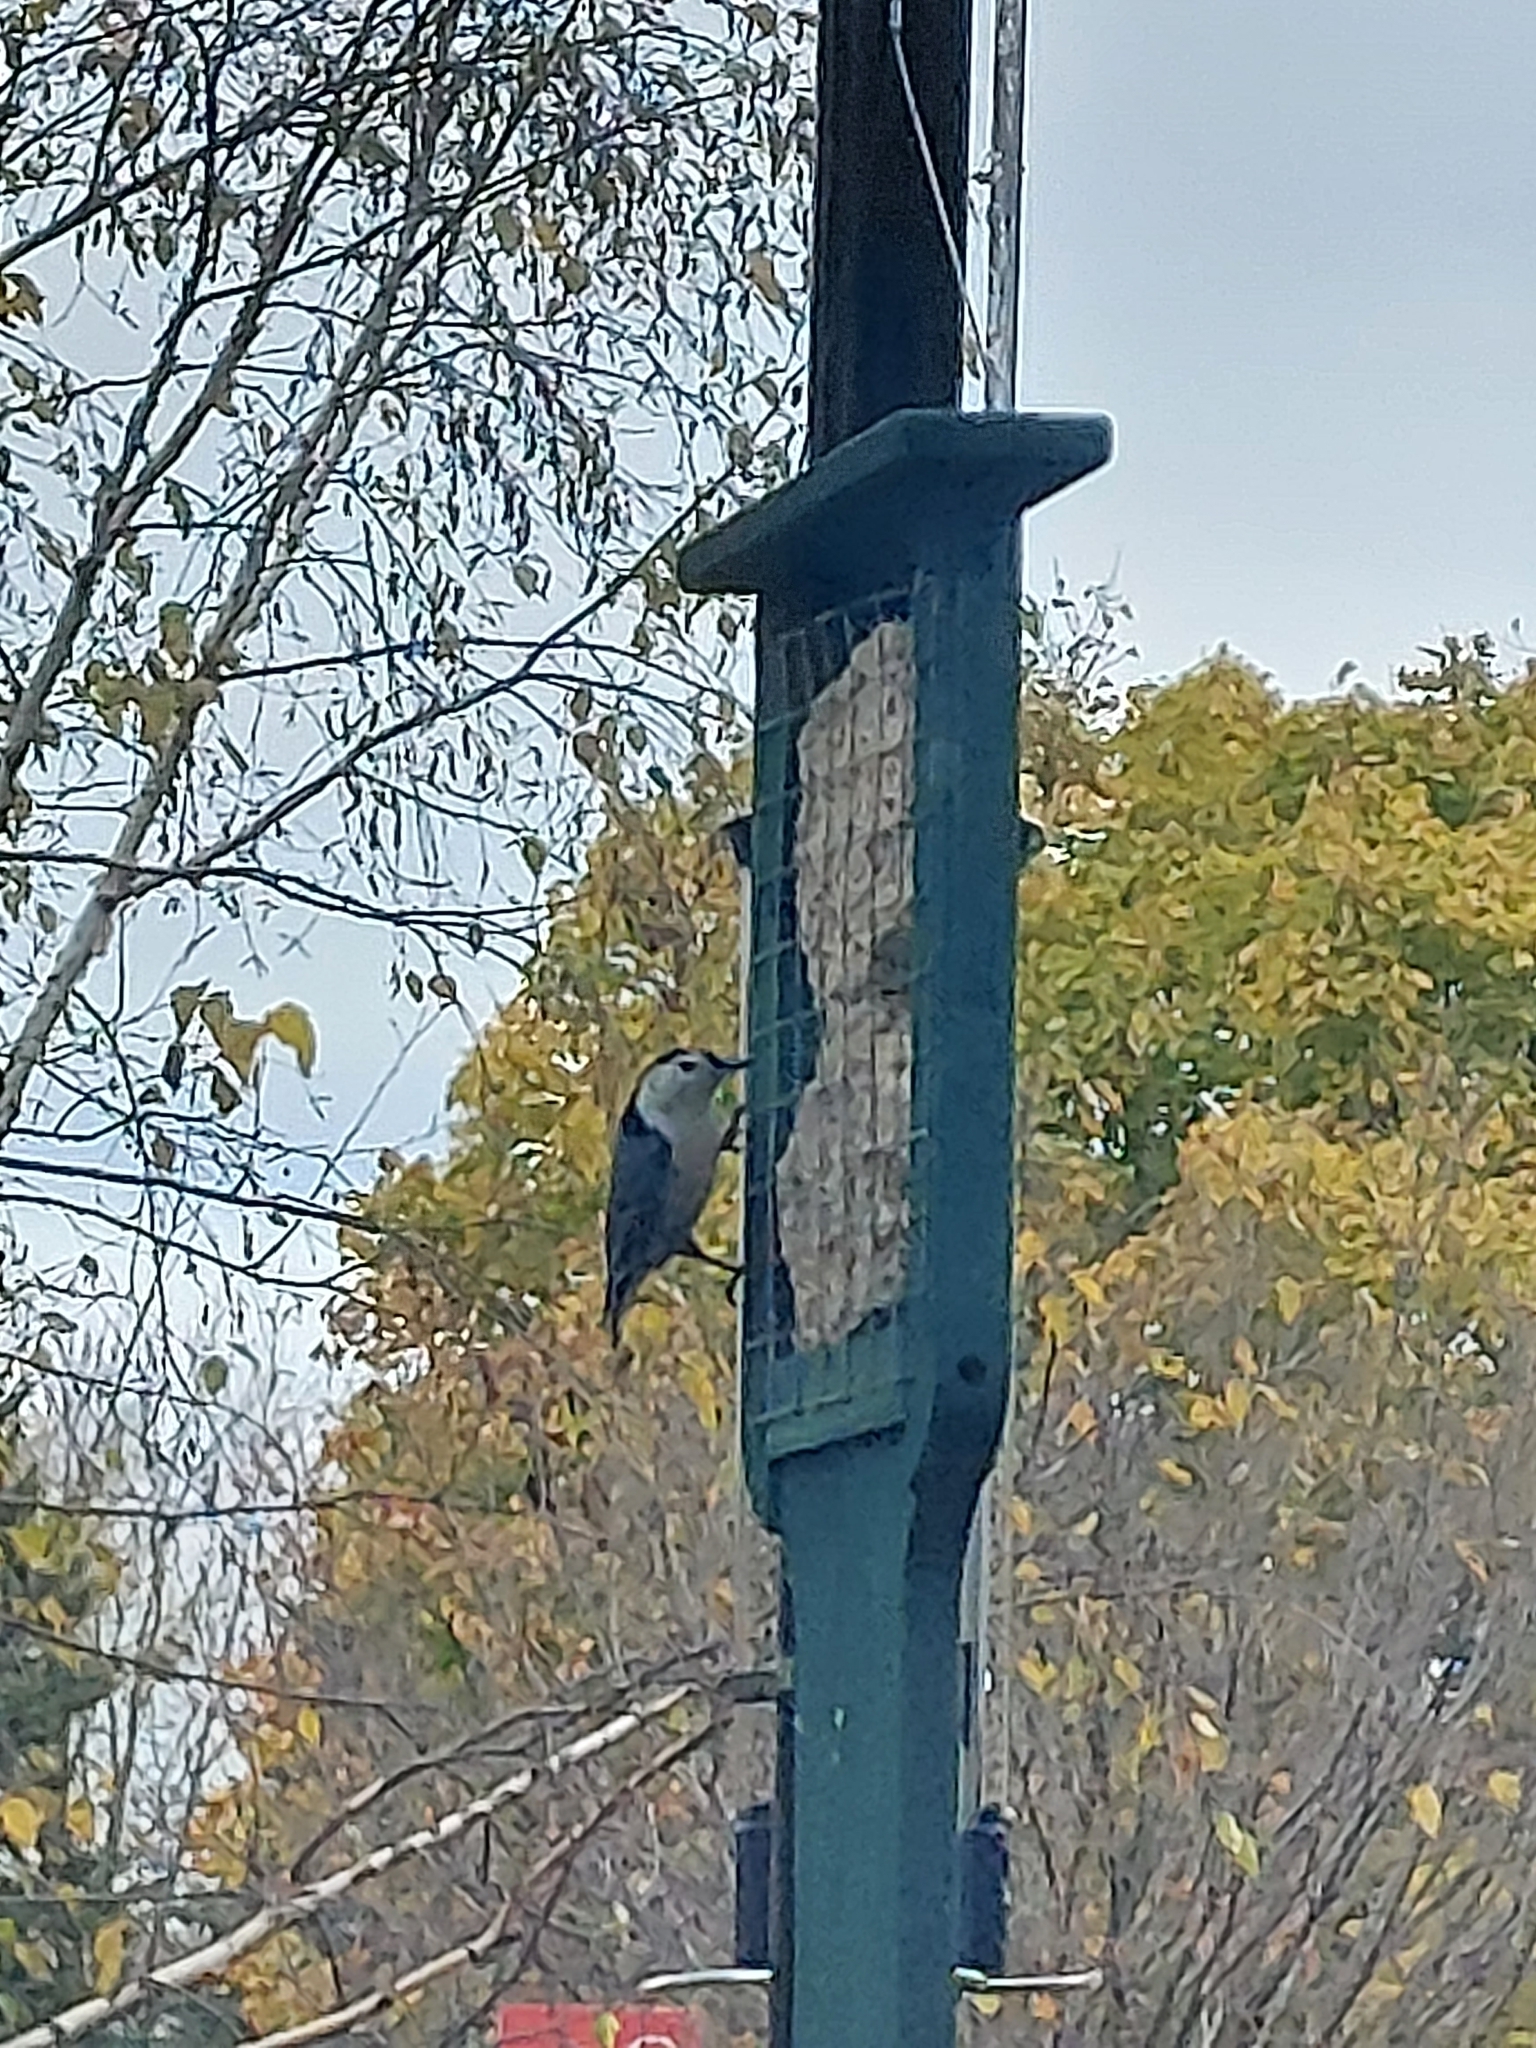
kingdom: Animalia
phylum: Chordata
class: Aves
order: Passeriformes
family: Sittidae
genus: Sitta
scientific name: Sitta carolinensis
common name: White-breasted nuthatch
